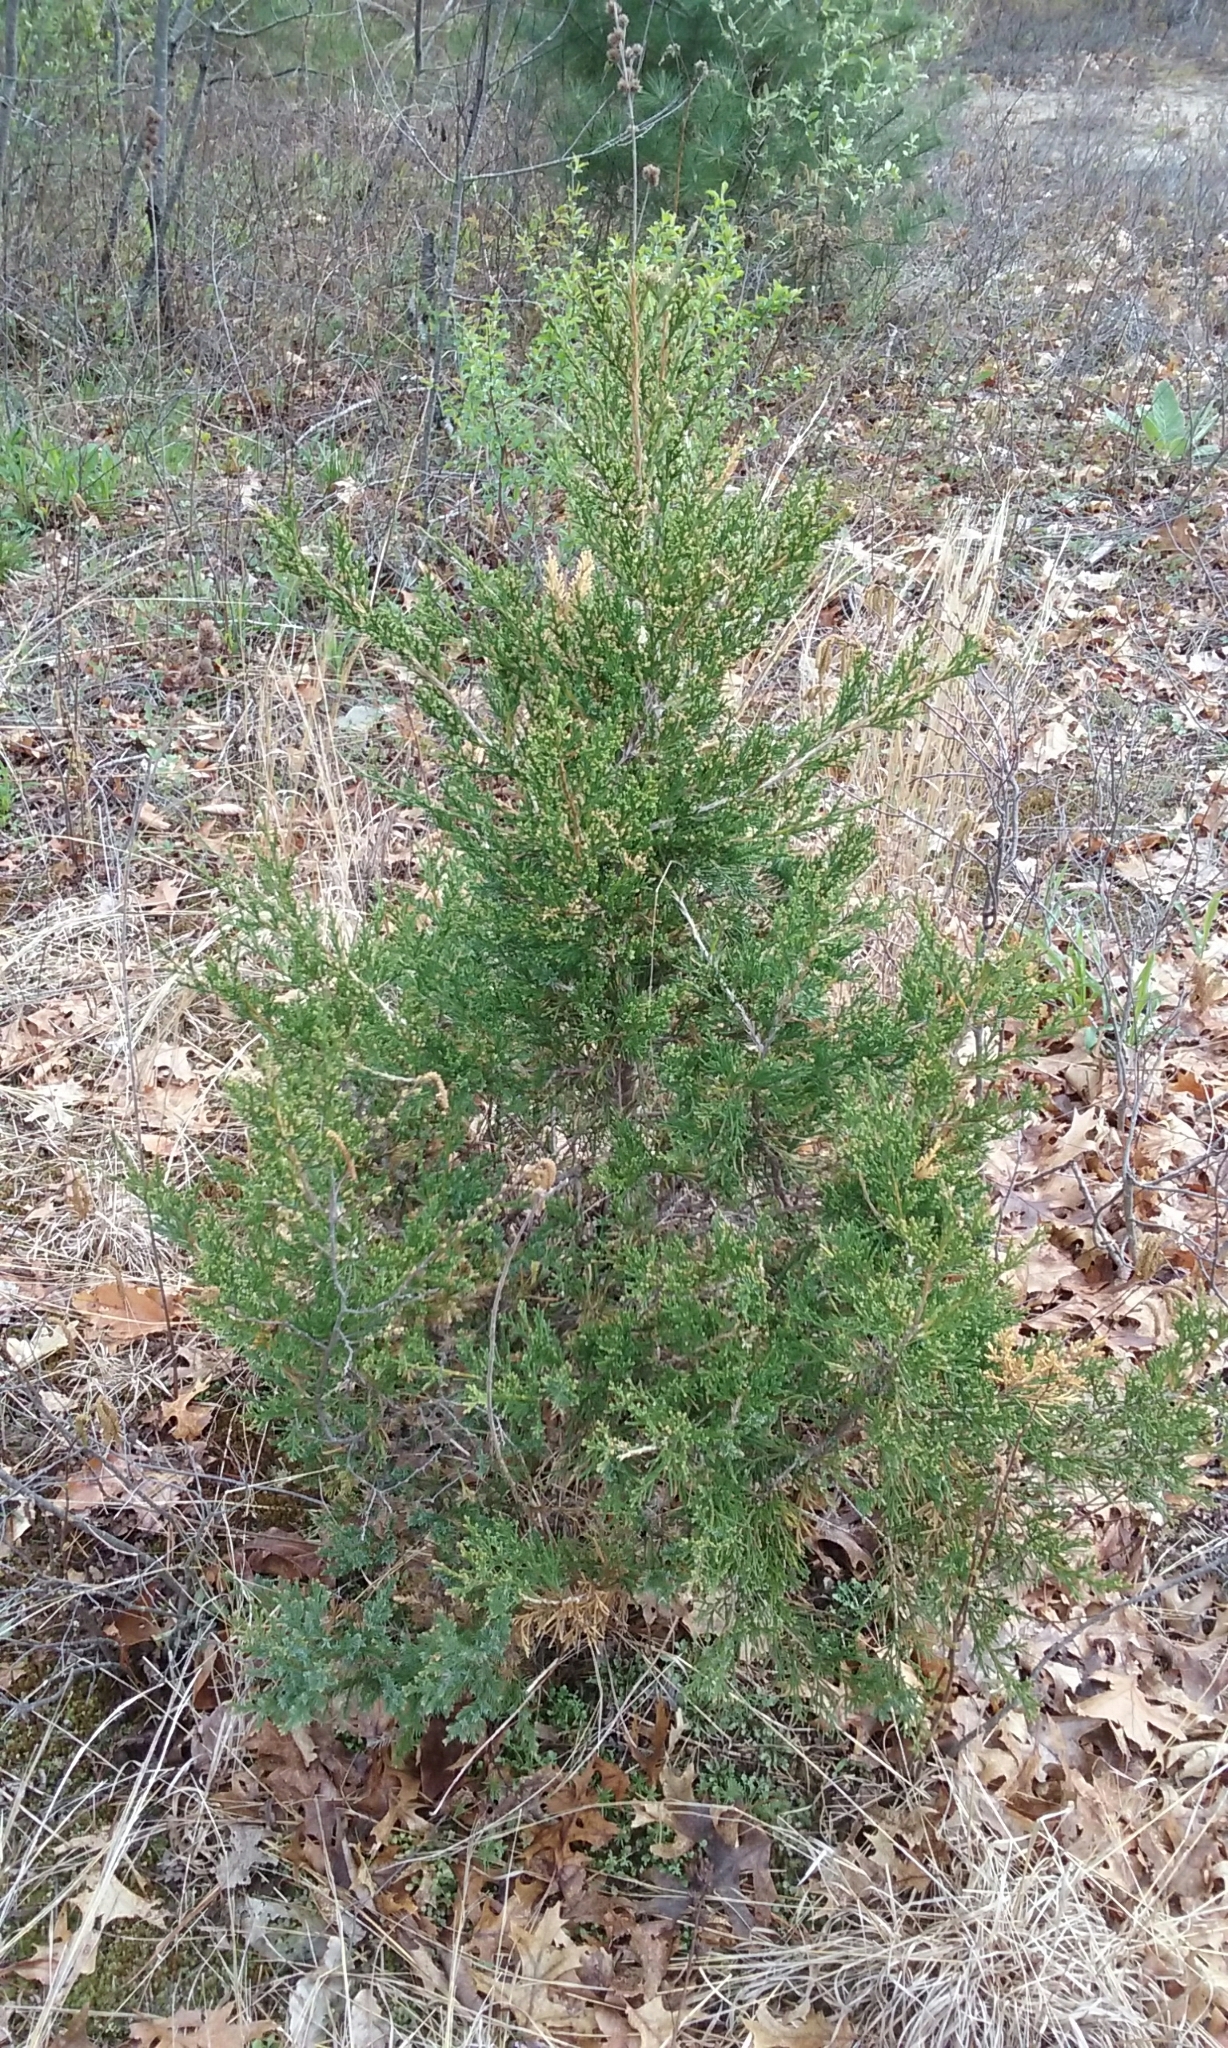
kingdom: Plantae
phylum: Tracheophyta
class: Pinopsida
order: Pinales
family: Cupressaceae
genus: Juniperus
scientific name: Juniperus virginiana
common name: Red juniper
